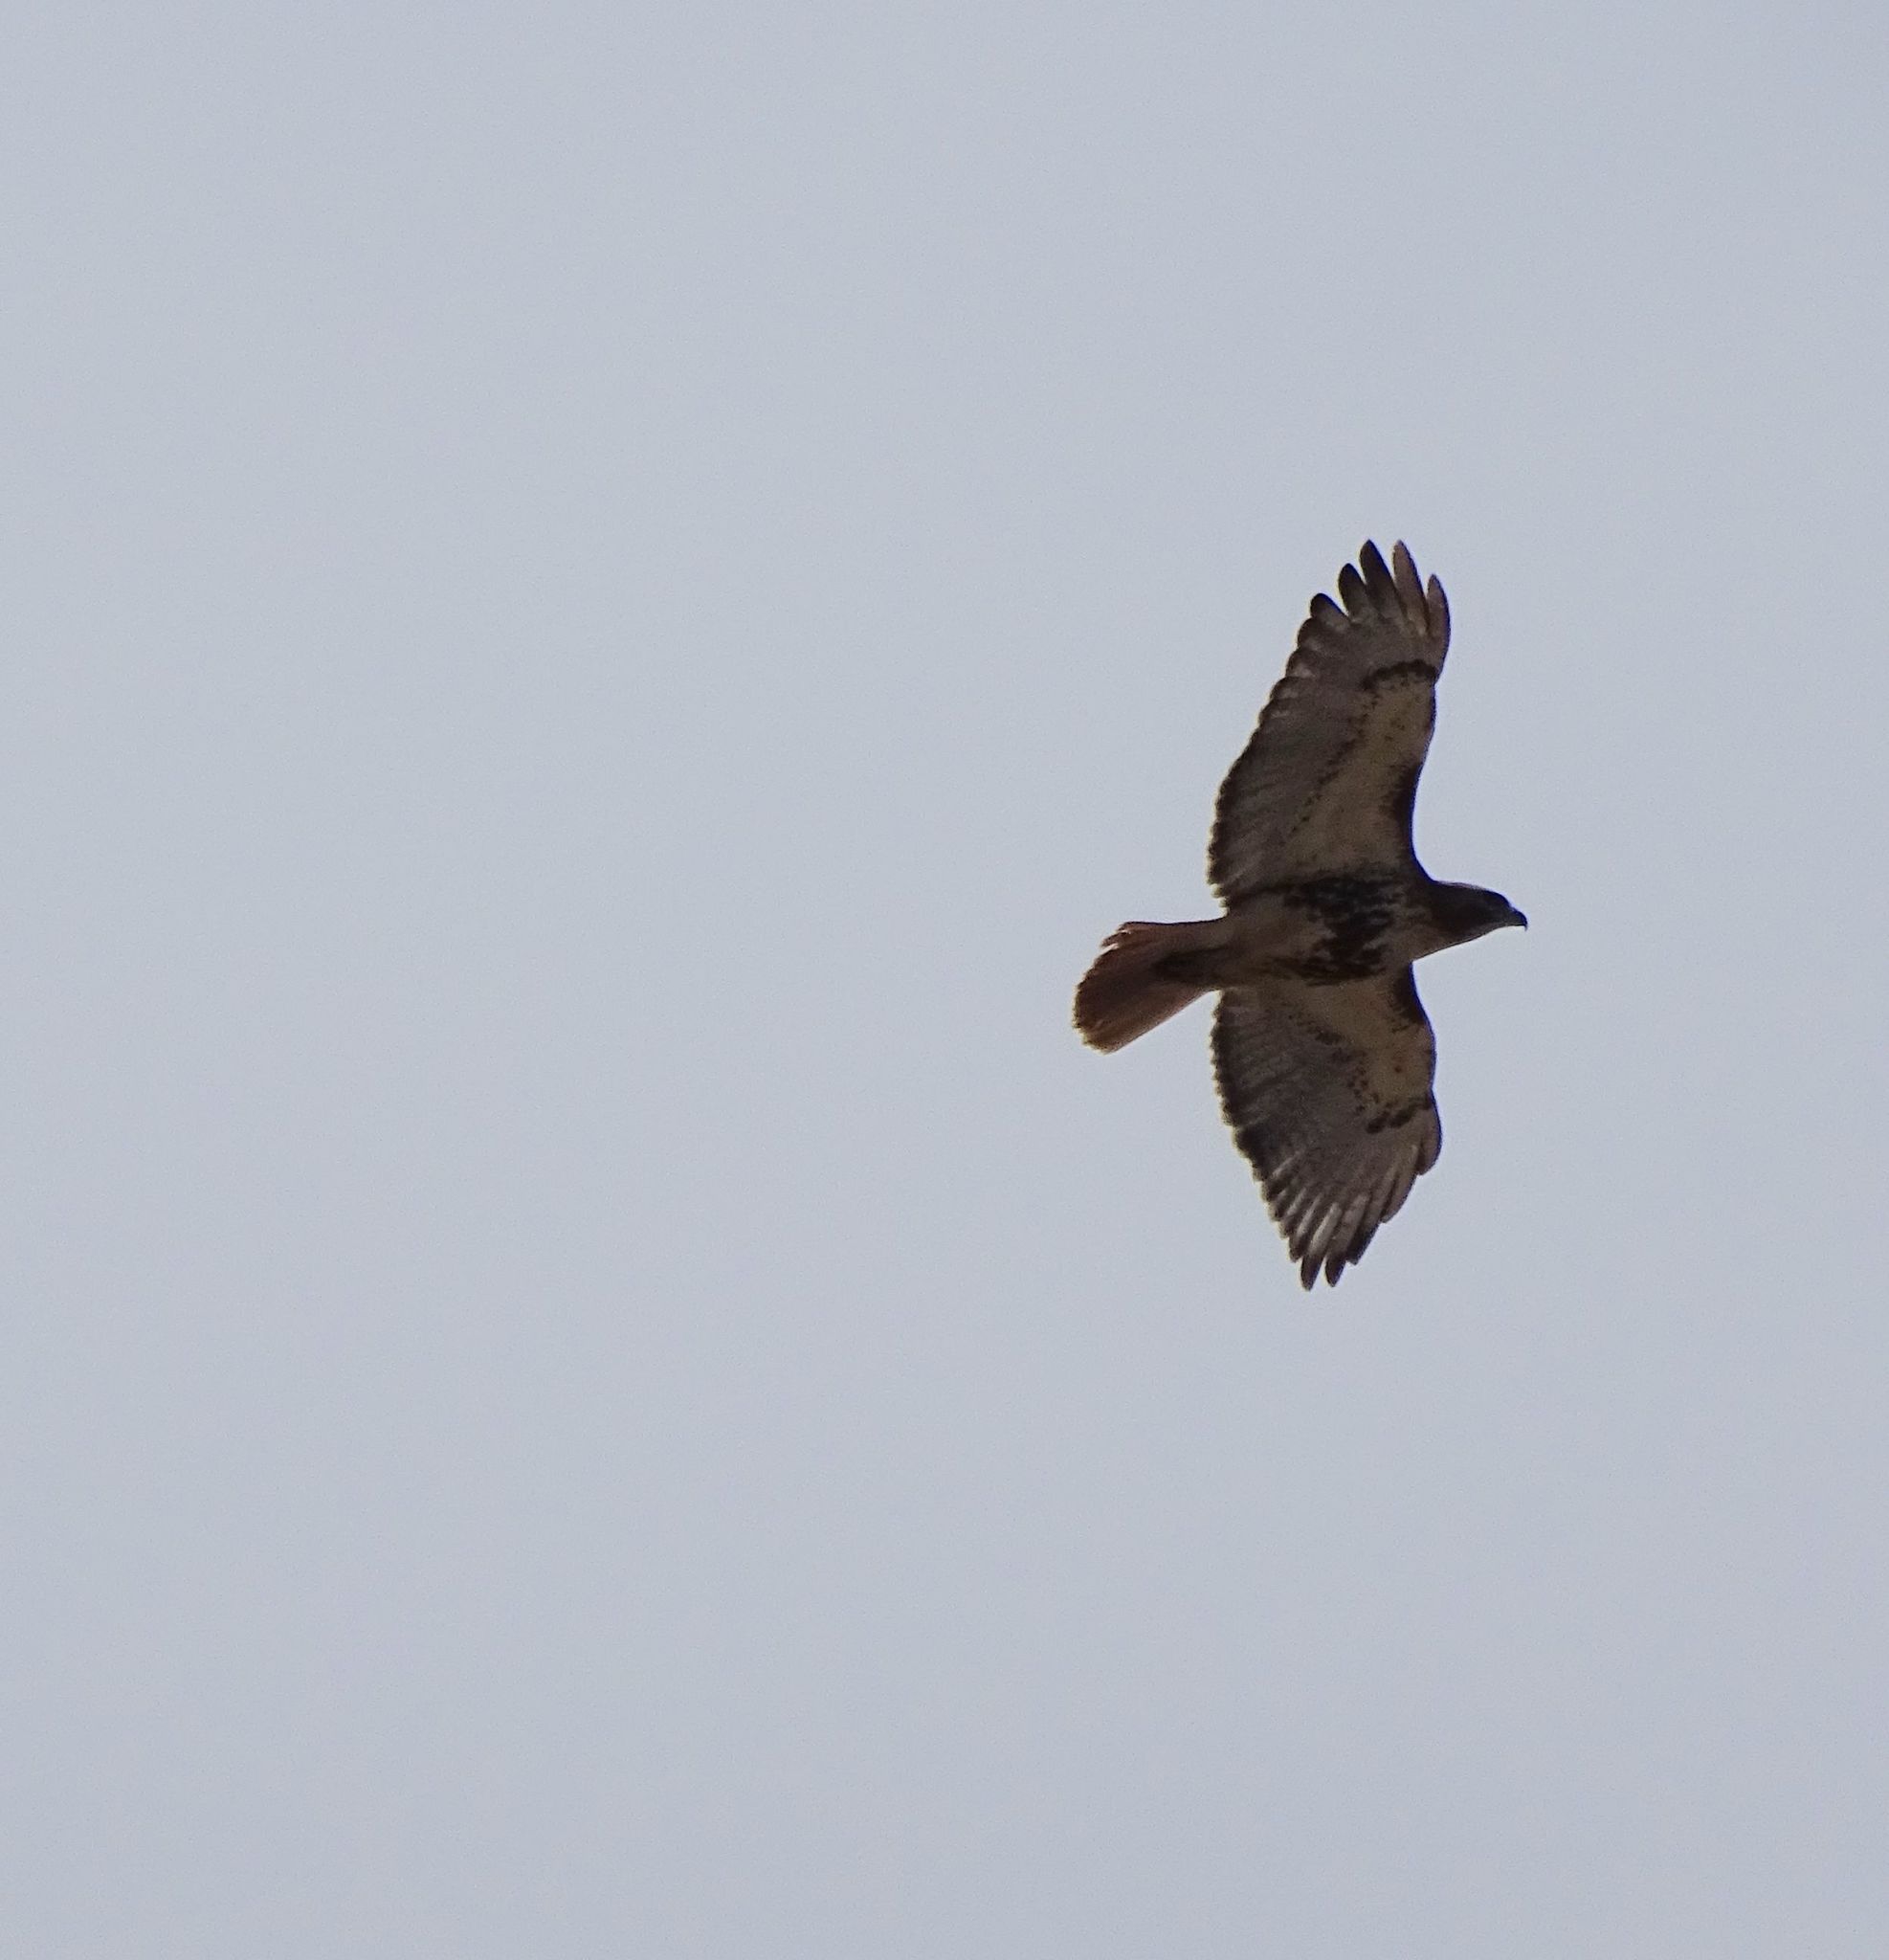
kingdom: Animalia
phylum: Chordata
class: Aves
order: Accipitriformes
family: Accipitridae
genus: Buteo
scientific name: Buteo jamaicensis
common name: Red-tailed hawk
